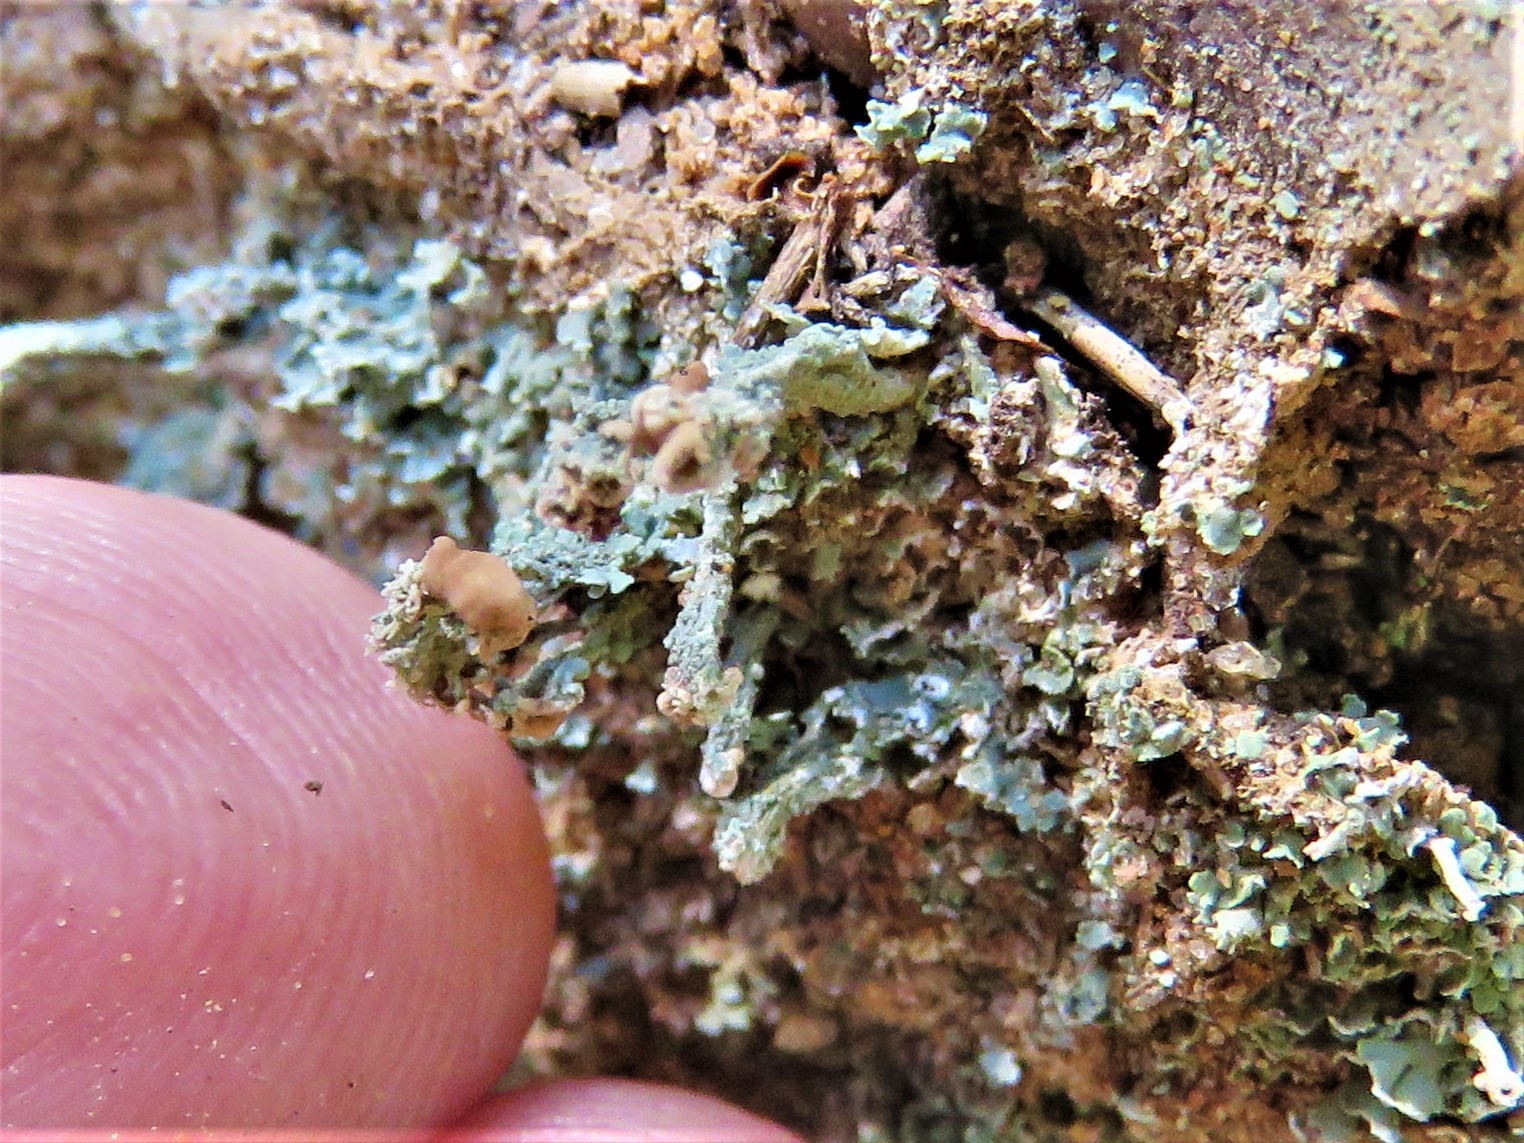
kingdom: Fungi
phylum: Ascomycota
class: Lecanoromycetes
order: Lecanorales
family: Cladoniaceae
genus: Cladonia
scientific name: Cladonia peziziformis
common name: Cup lichen
